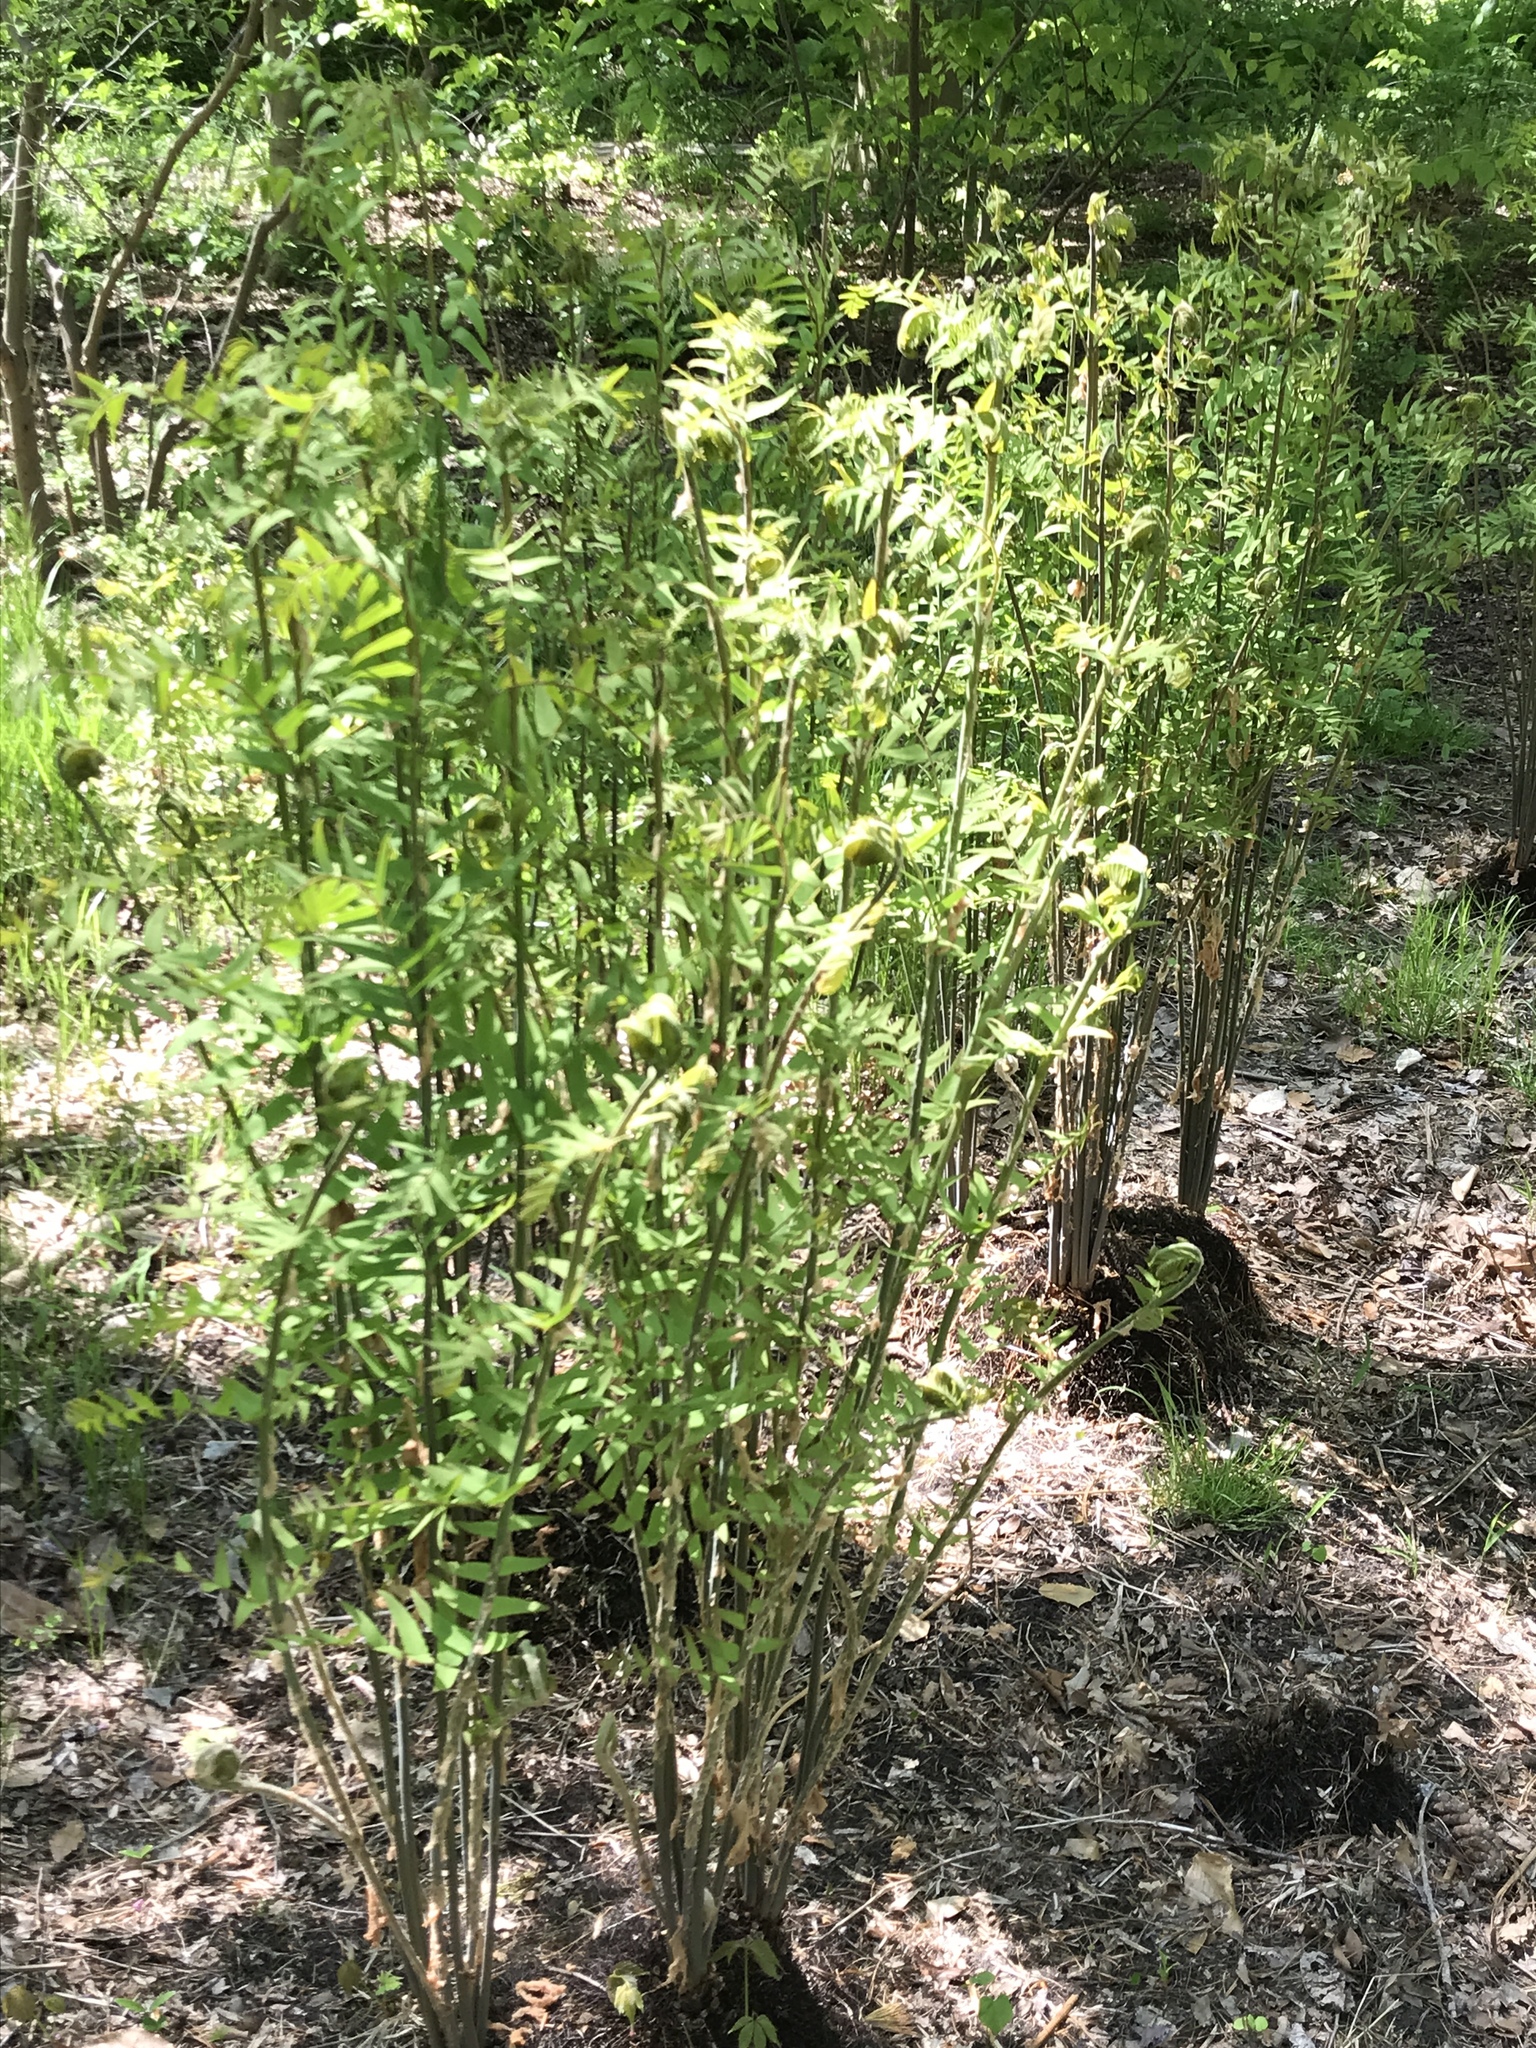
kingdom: Plantae
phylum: Tracheophyta
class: Polypodiopsida
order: Osmundales
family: Osmundaceae
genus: Osmunda
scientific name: Osmunda spectabilis
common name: American royal fern
